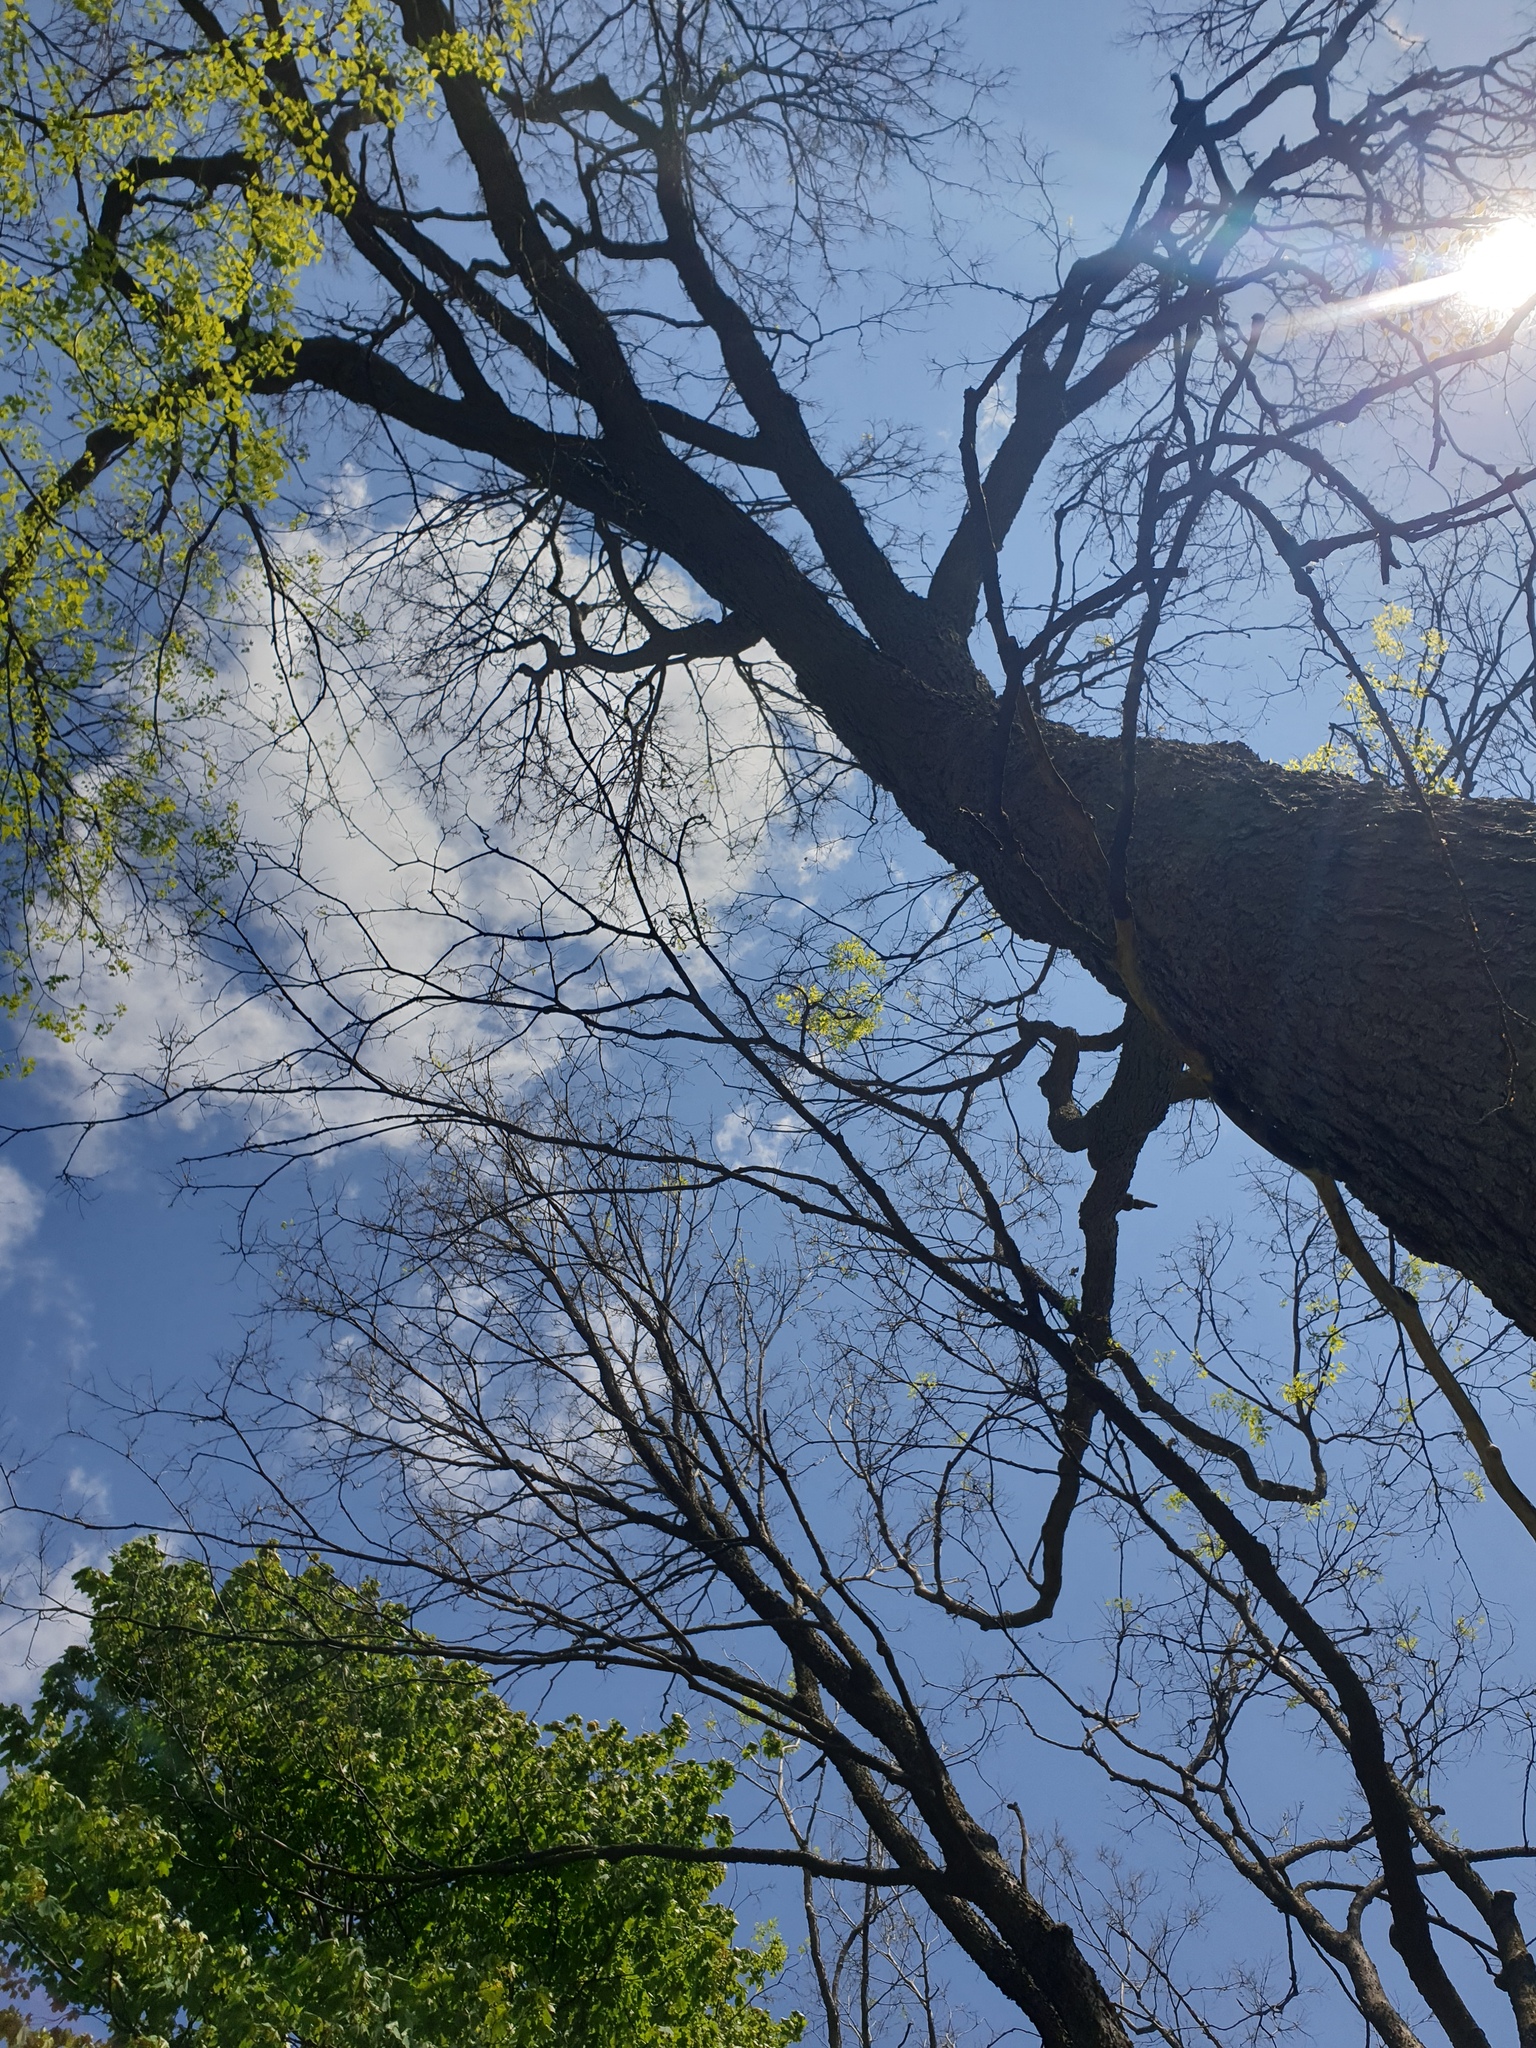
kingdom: Plantae
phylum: Tracheophyta
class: Magnoliopsida
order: Rosales
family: Cannabaceae
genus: Celtis
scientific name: Celtis occidentalis
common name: Common hackberry
